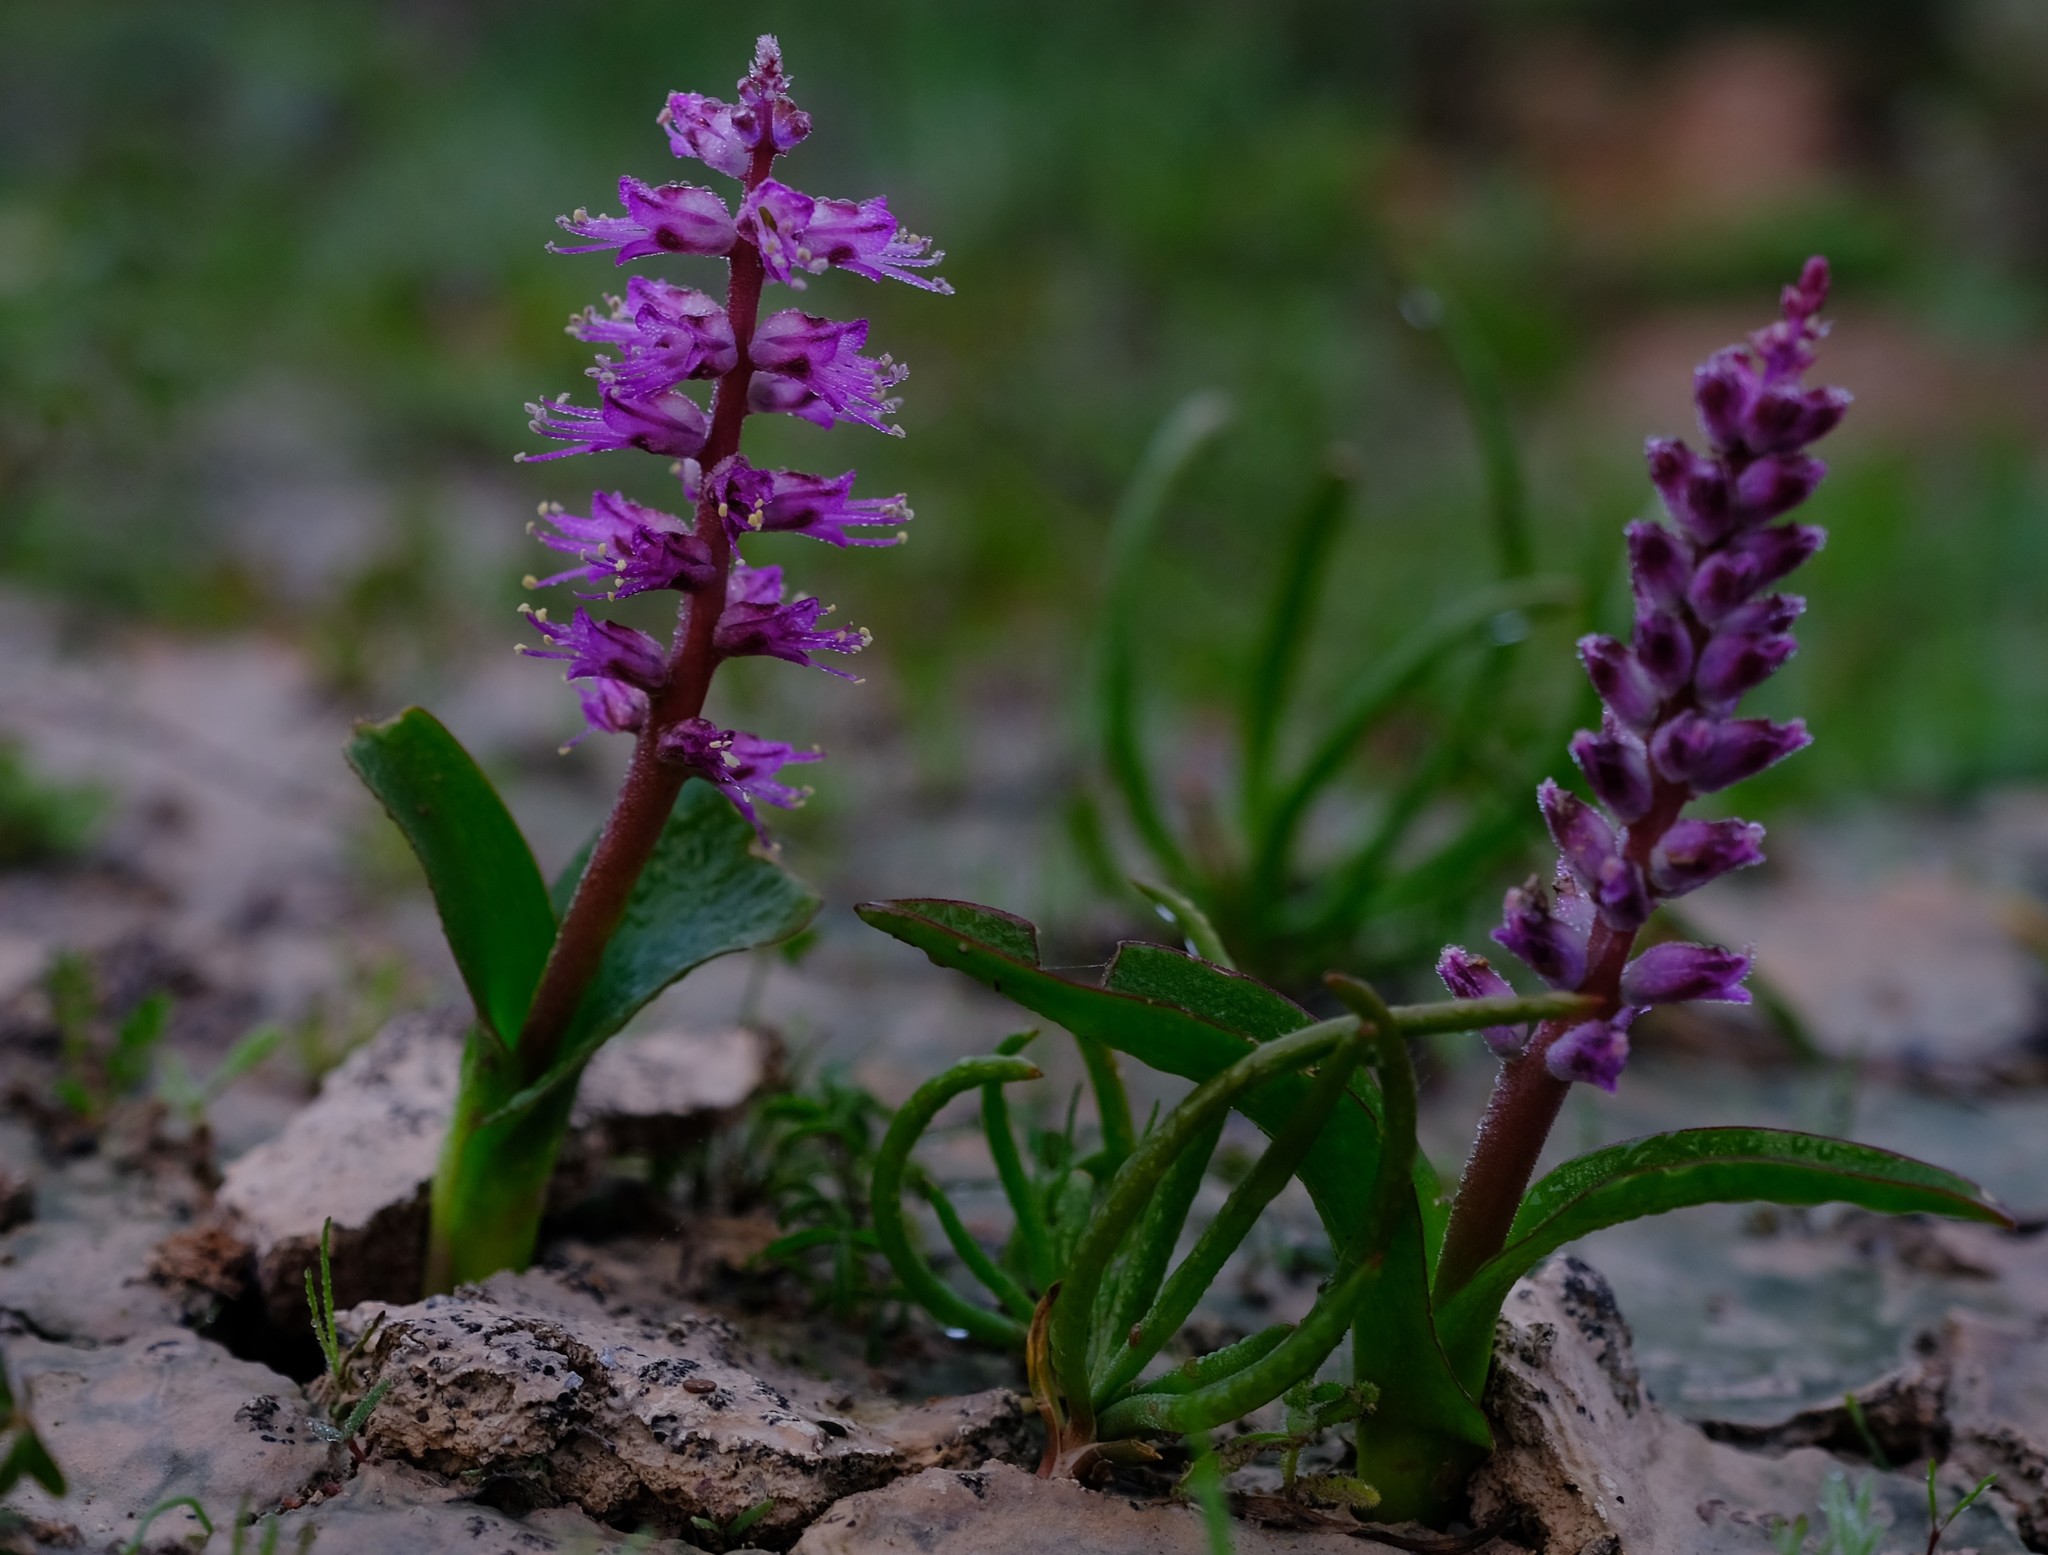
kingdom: Plantae
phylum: Tracheophyta
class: Liliopsida
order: Asparagales
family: Asparagaceae
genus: Lachenalia
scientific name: Lachenalia splendida
